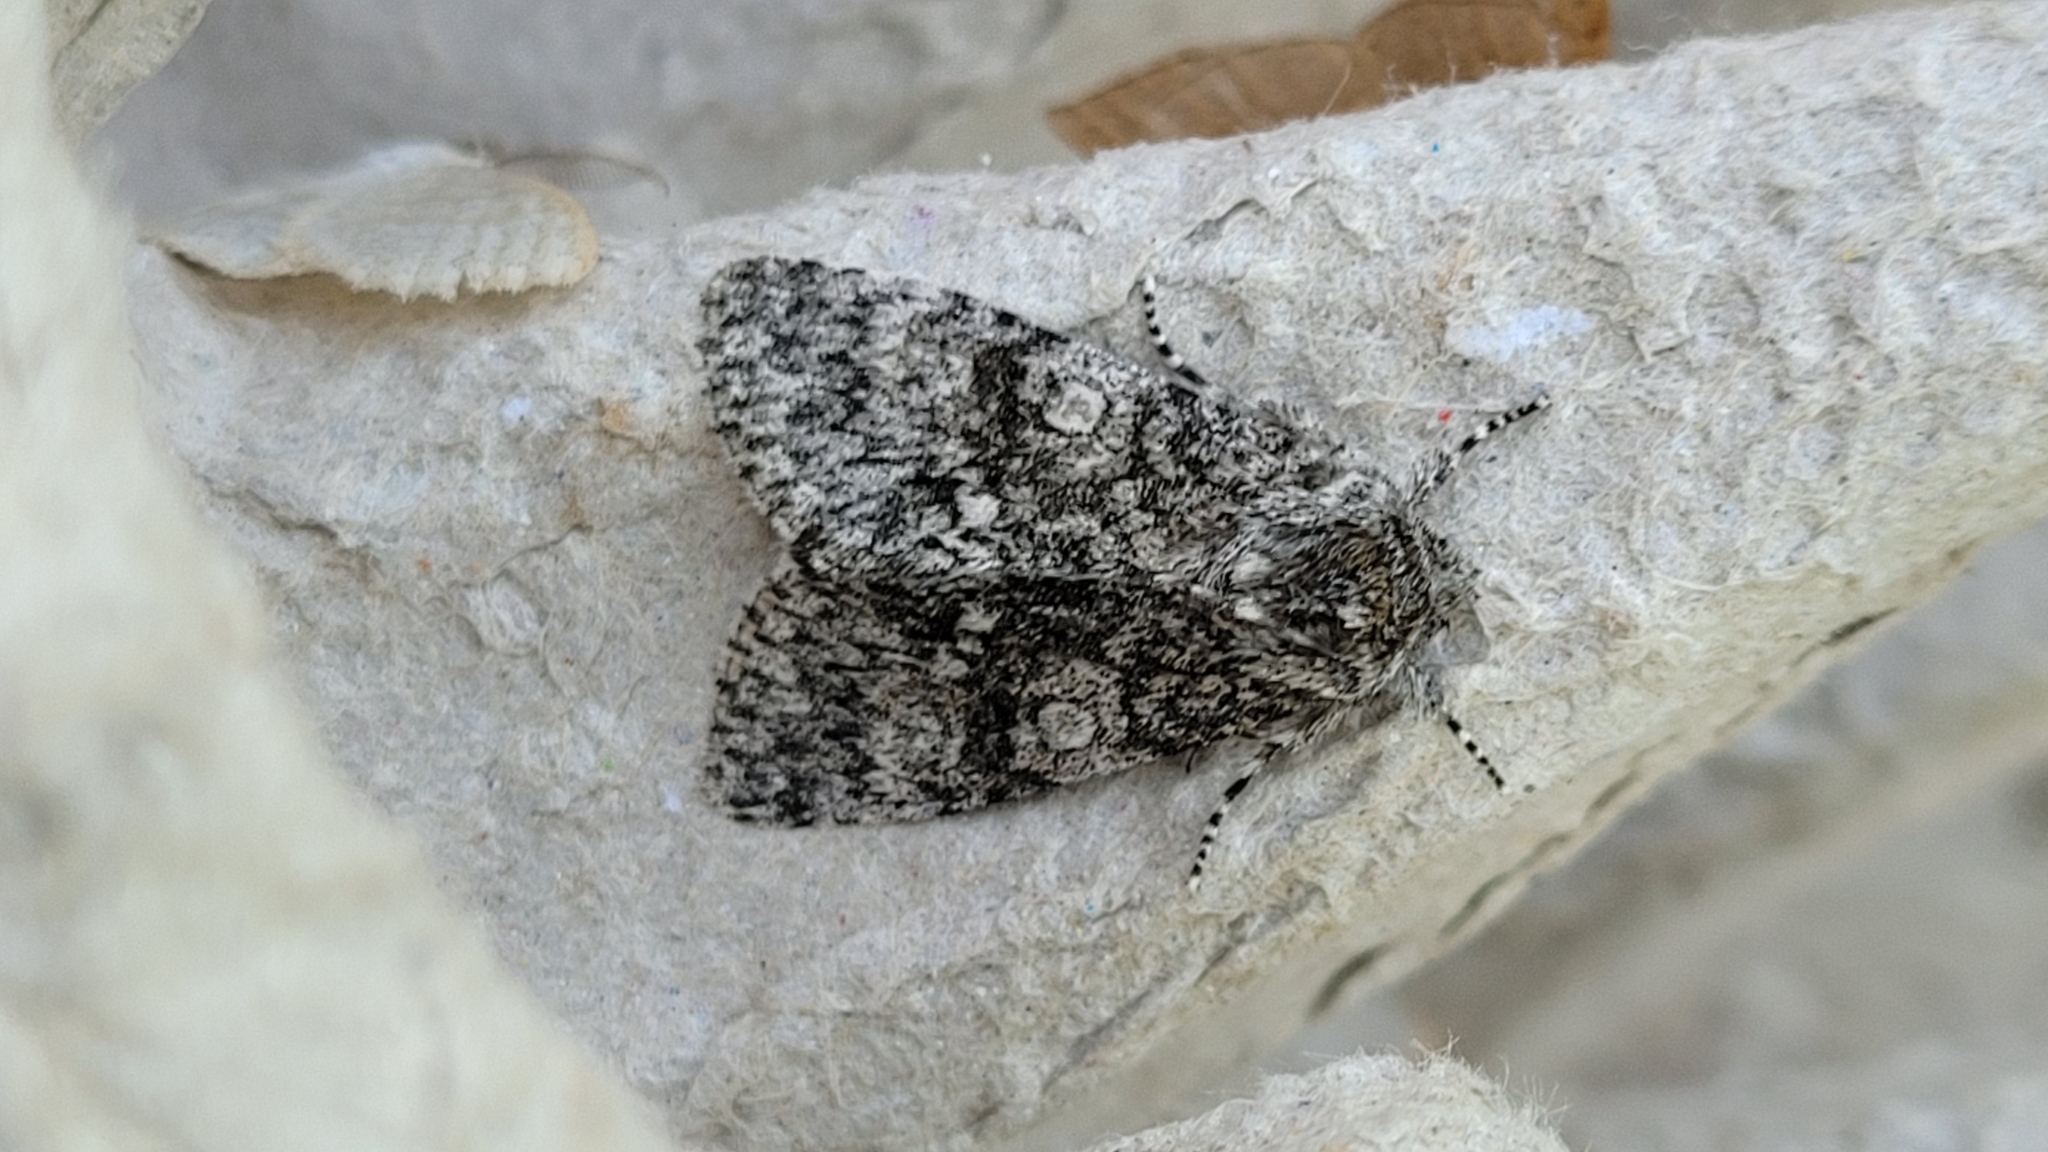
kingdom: Animalia
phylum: Arthropoda
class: Insecta
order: Lepidoptera
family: Noctuidae
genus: Acronicta
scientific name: Acronicta megacephala
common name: Poplar grey
